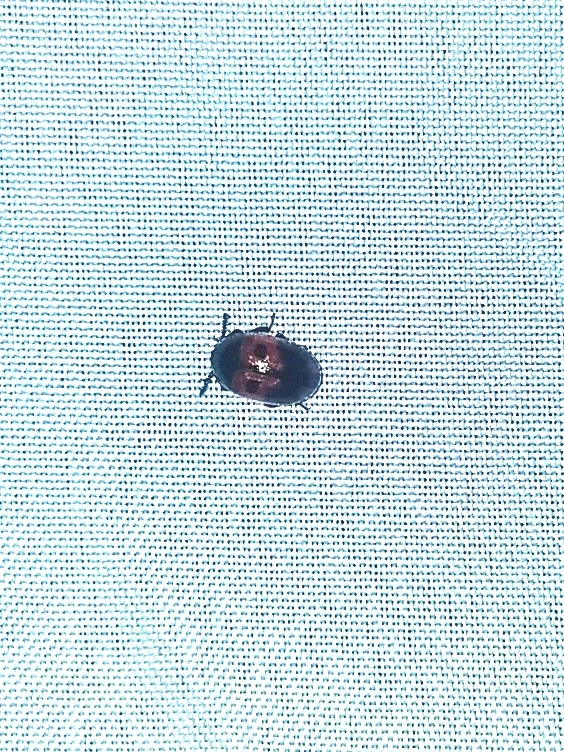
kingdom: Animalia
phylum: Arthropoda
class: Insecta
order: Coleoptera
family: Tenebrionidae
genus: Diaperis
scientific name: Diaperis maculata
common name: Darkling beetle
